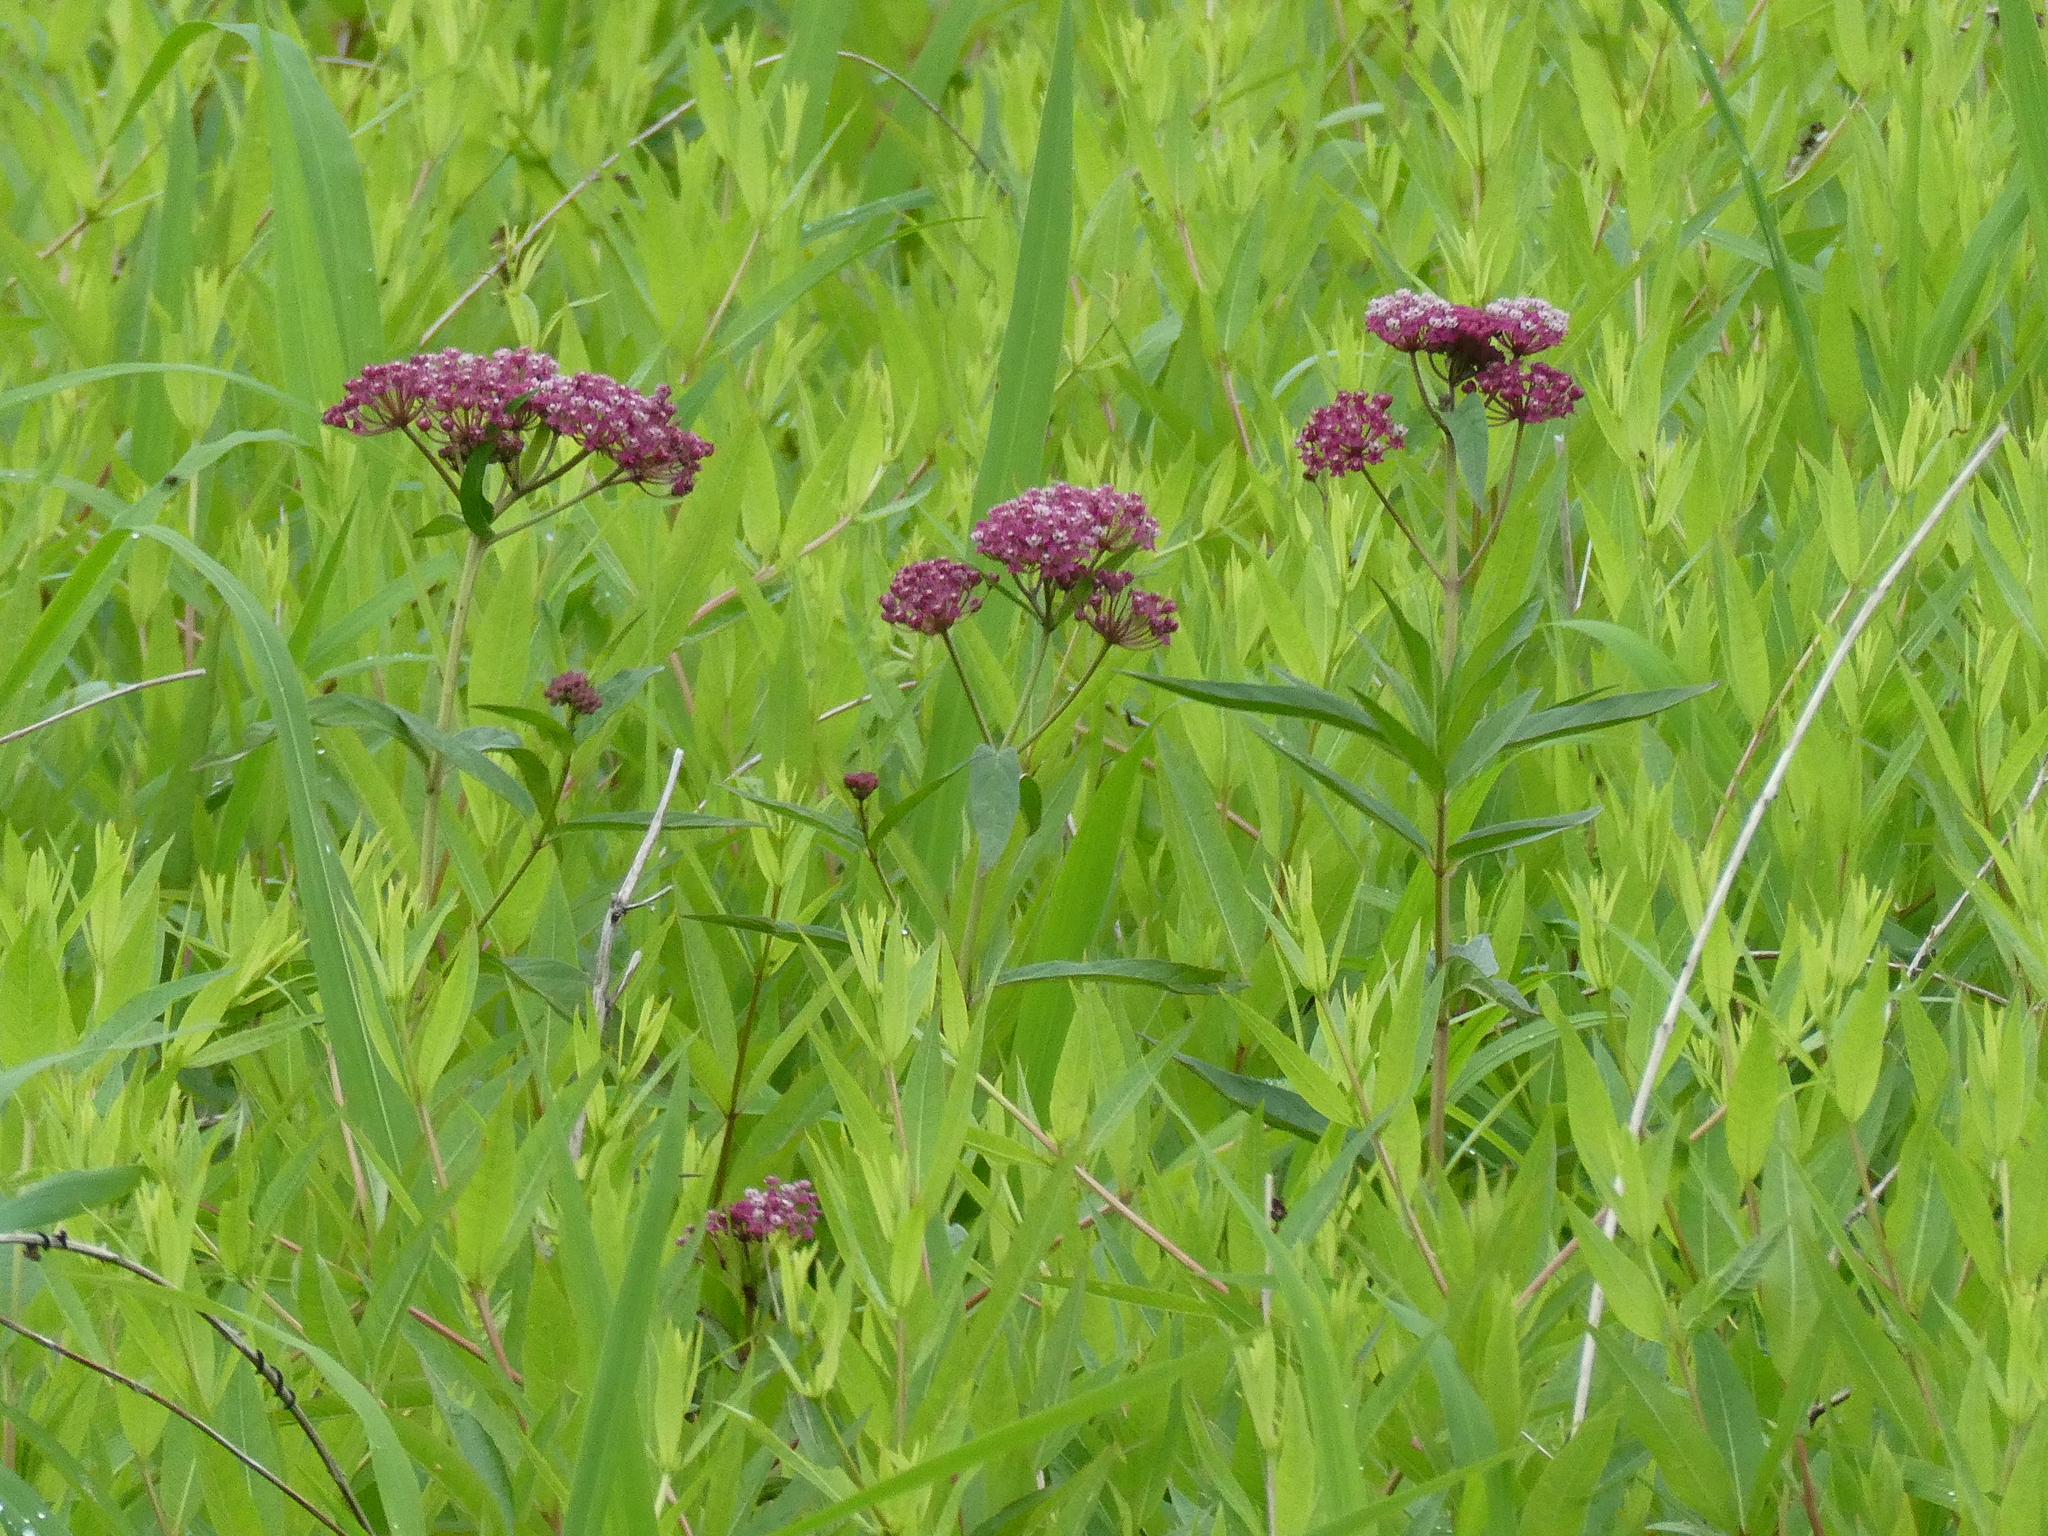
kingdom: Plantae
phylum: Tracheophyta
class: Magnoliopsida
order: Gentianales
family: Apocynaceae
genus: Asclepias
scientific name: Asclepias incarnata
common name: Swamp milkweed
